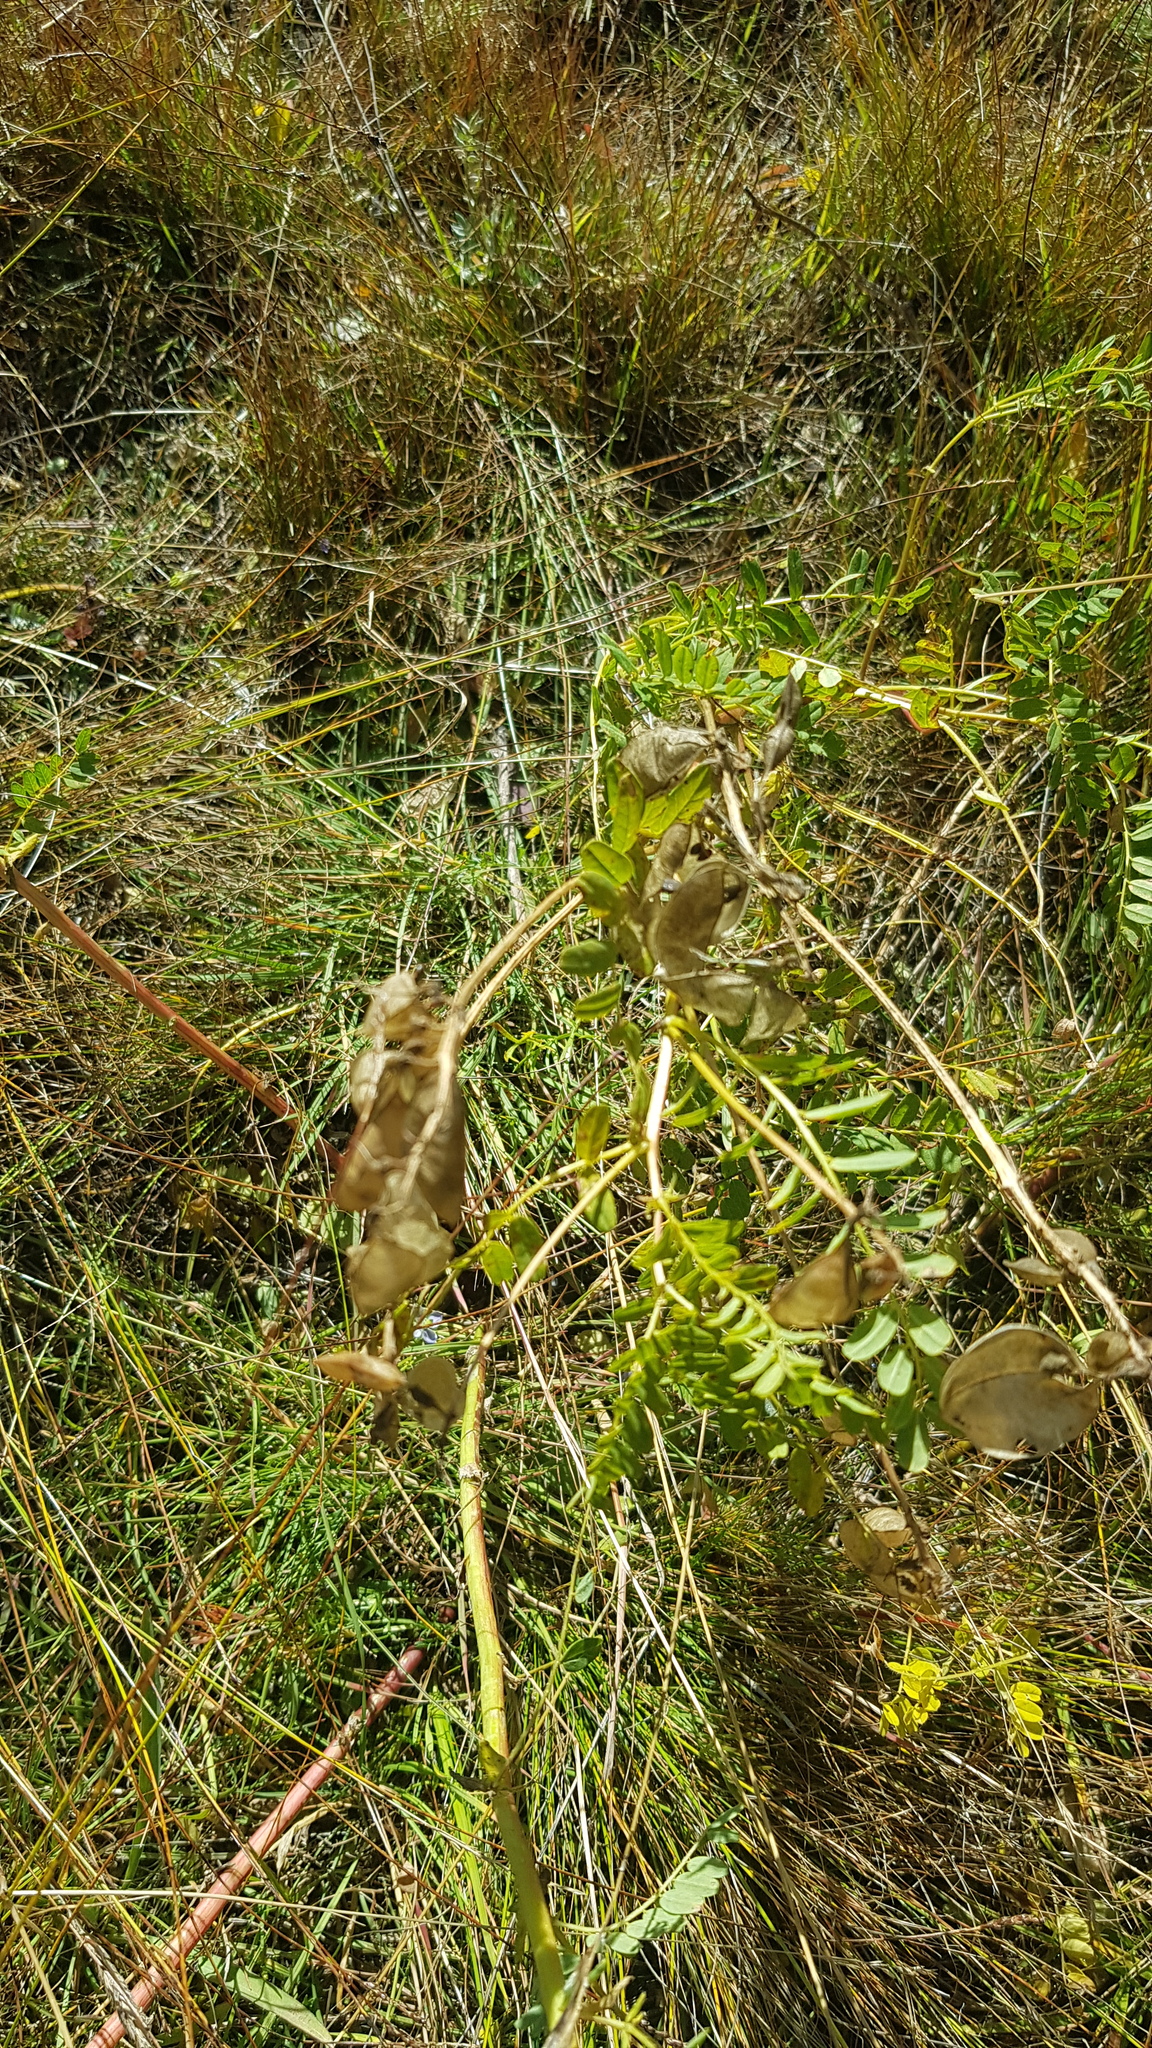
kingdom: Plantae
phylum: Tracheophyta
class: Magnoliopsida
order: Fabales
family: Fabaceae
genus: Astragalus
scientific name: Astragalus frigidus
